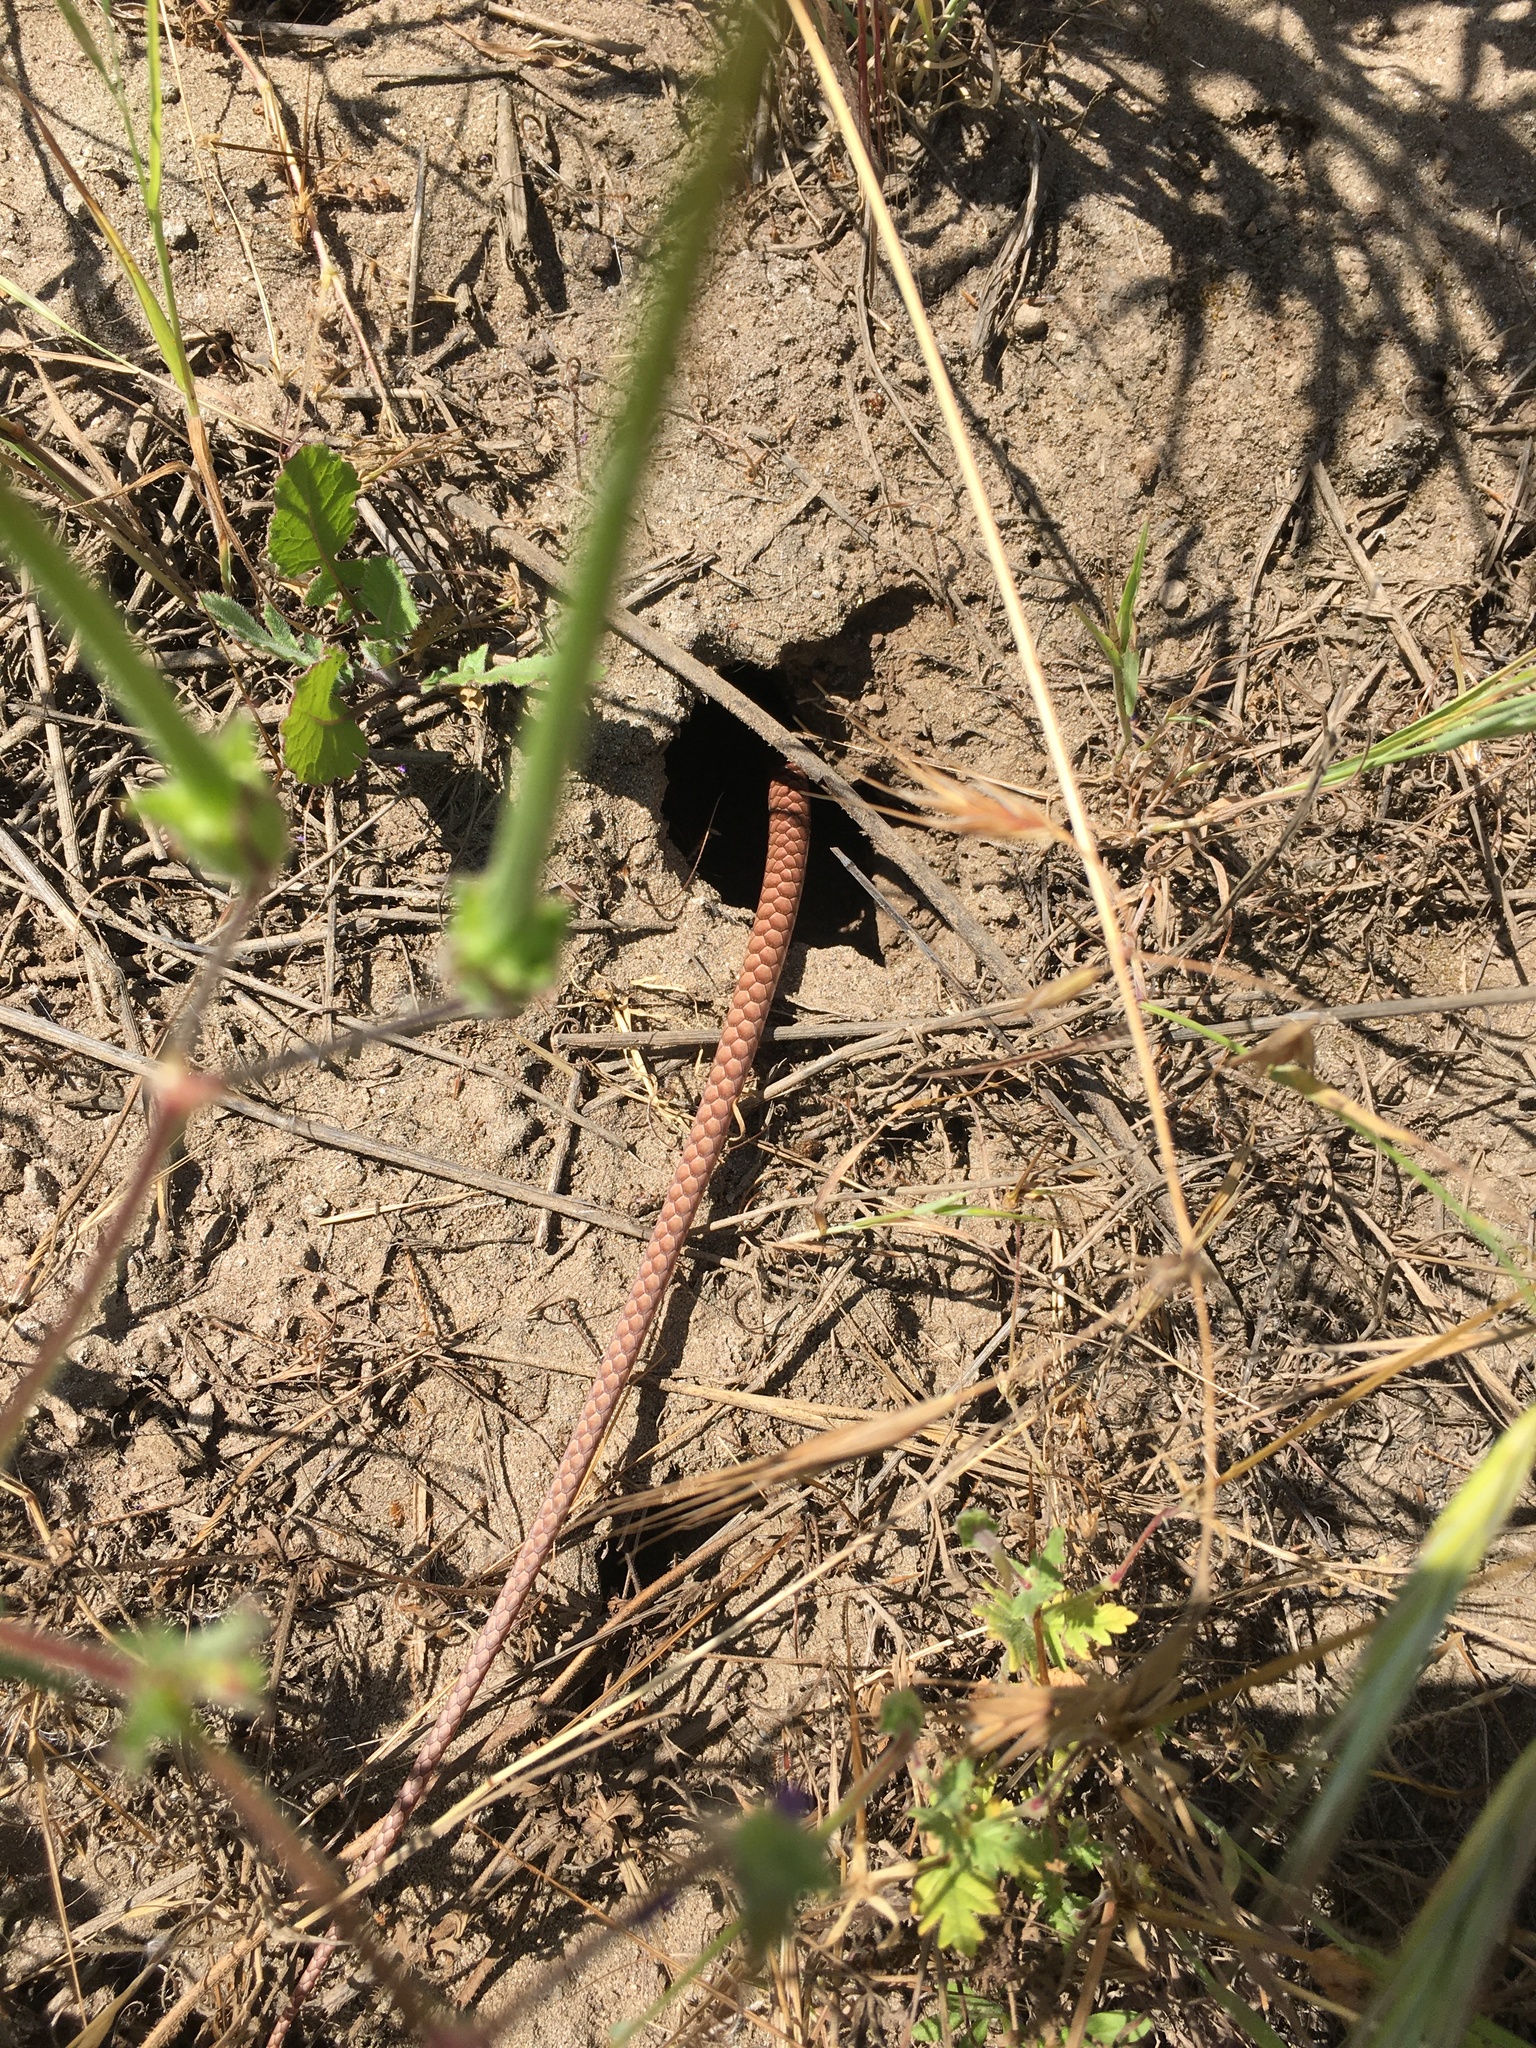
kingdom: Animalia
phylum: Chordata
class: Squamata
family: Colubridae
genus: Masticophis
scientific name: Masticophis flagellum
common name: Coachwhip
